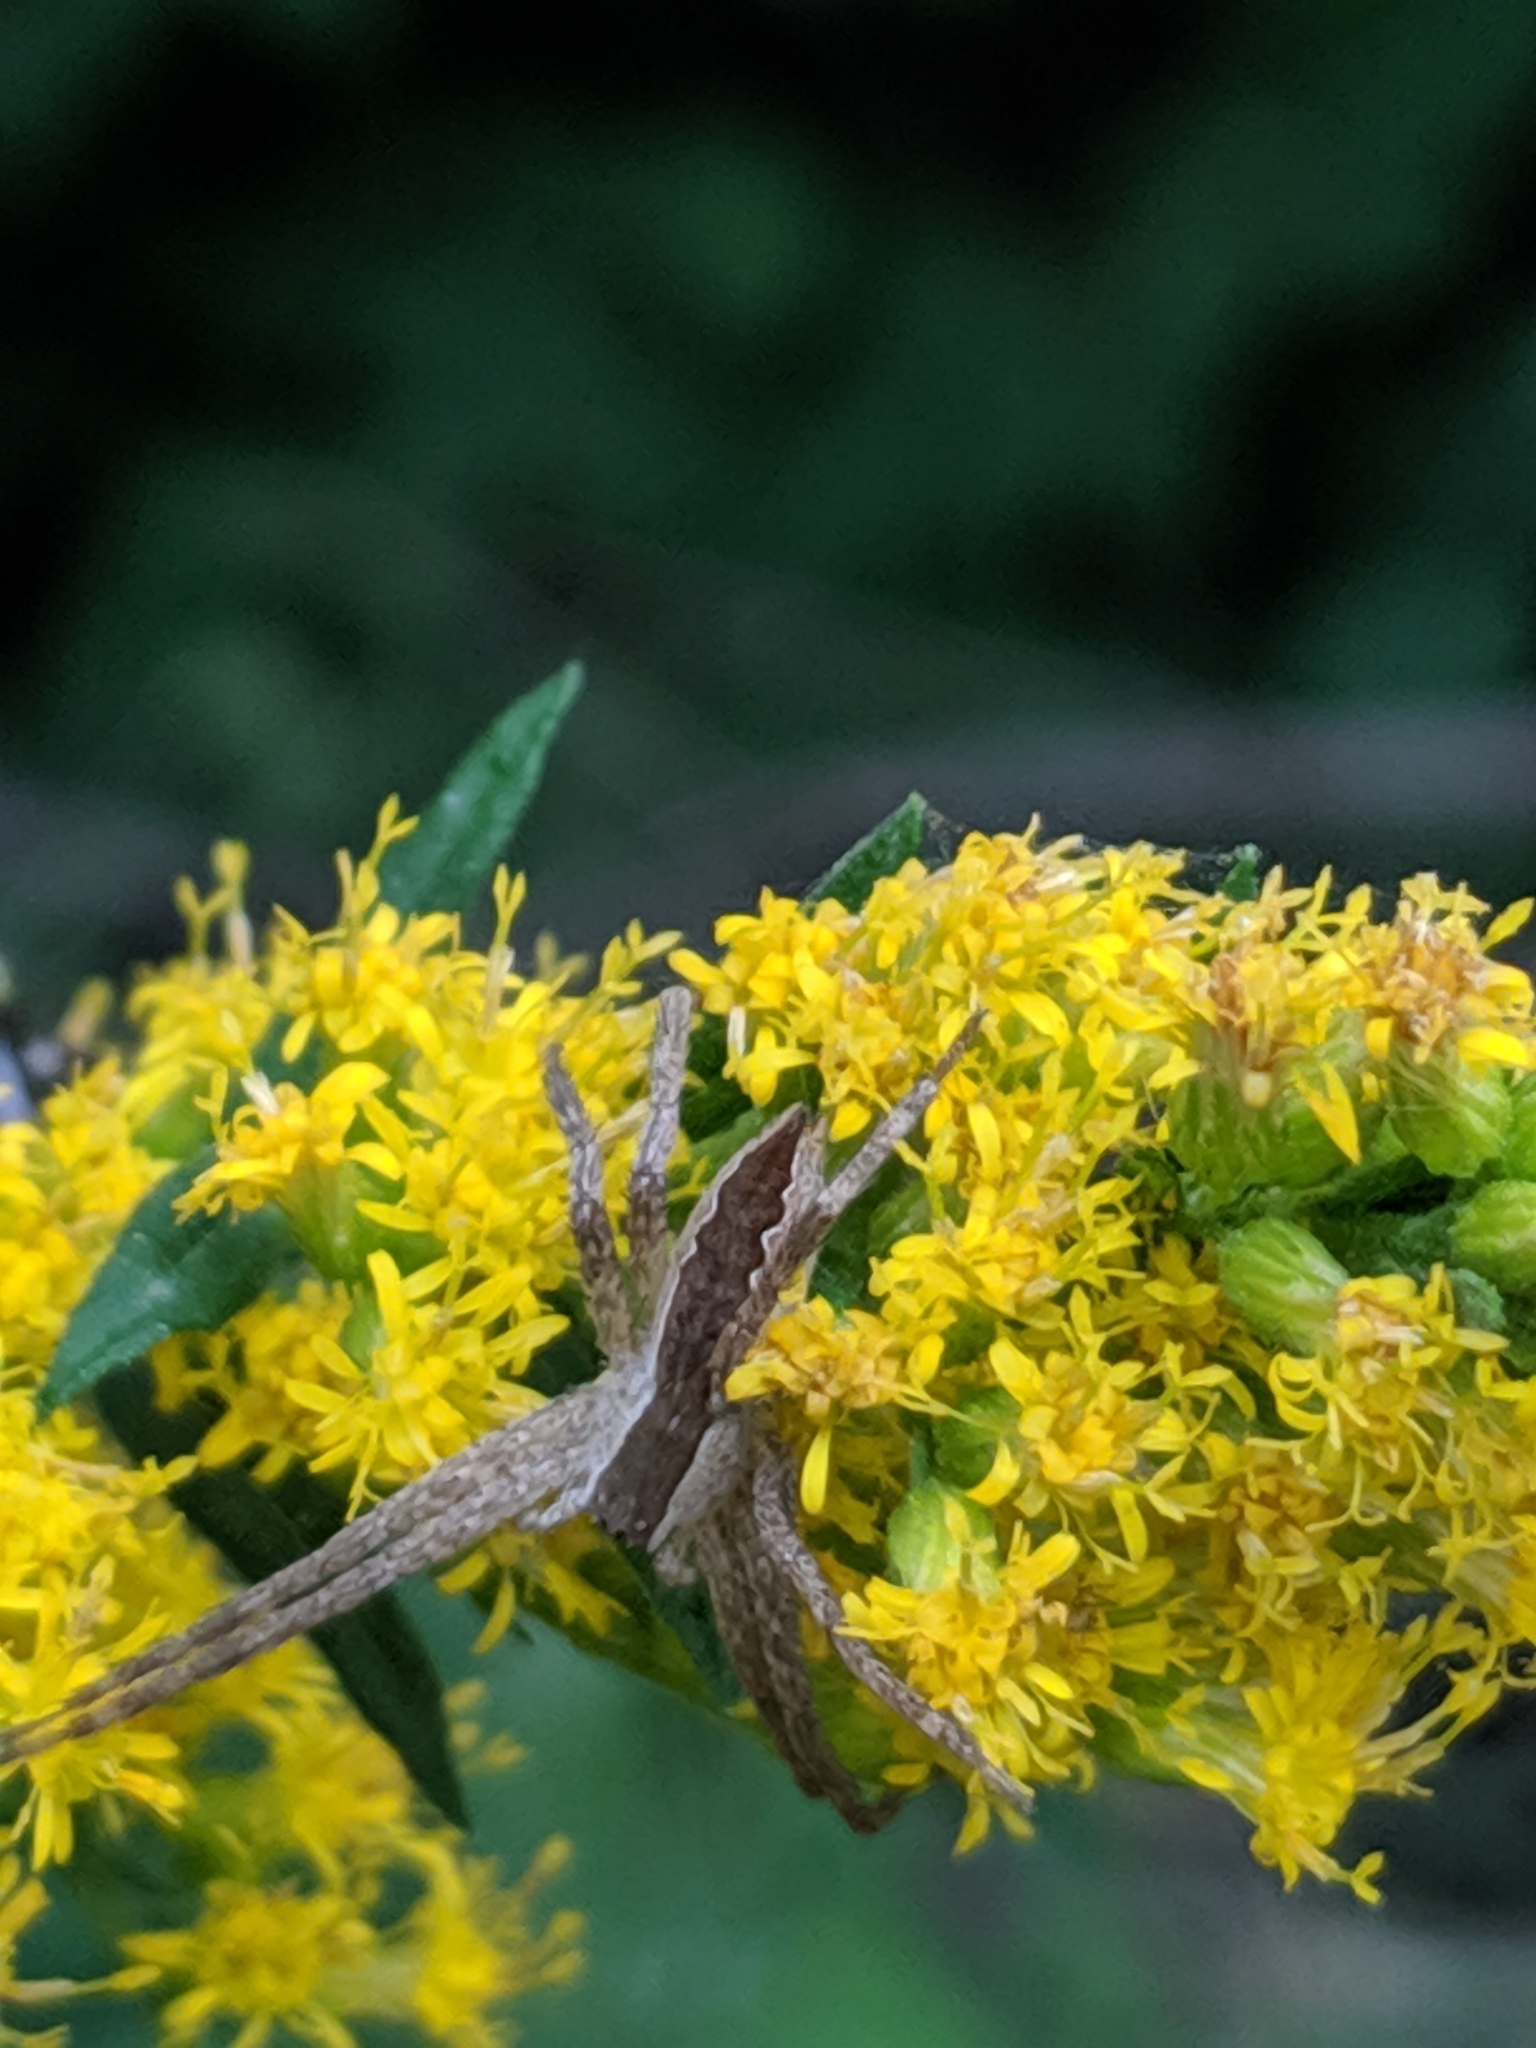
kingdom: Animalia
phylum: Arthropoda
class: Arachnida
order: Araneae
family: Pisauridae
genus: Pisaurina
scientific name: Pisaurina mira
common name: American nursery web spider
